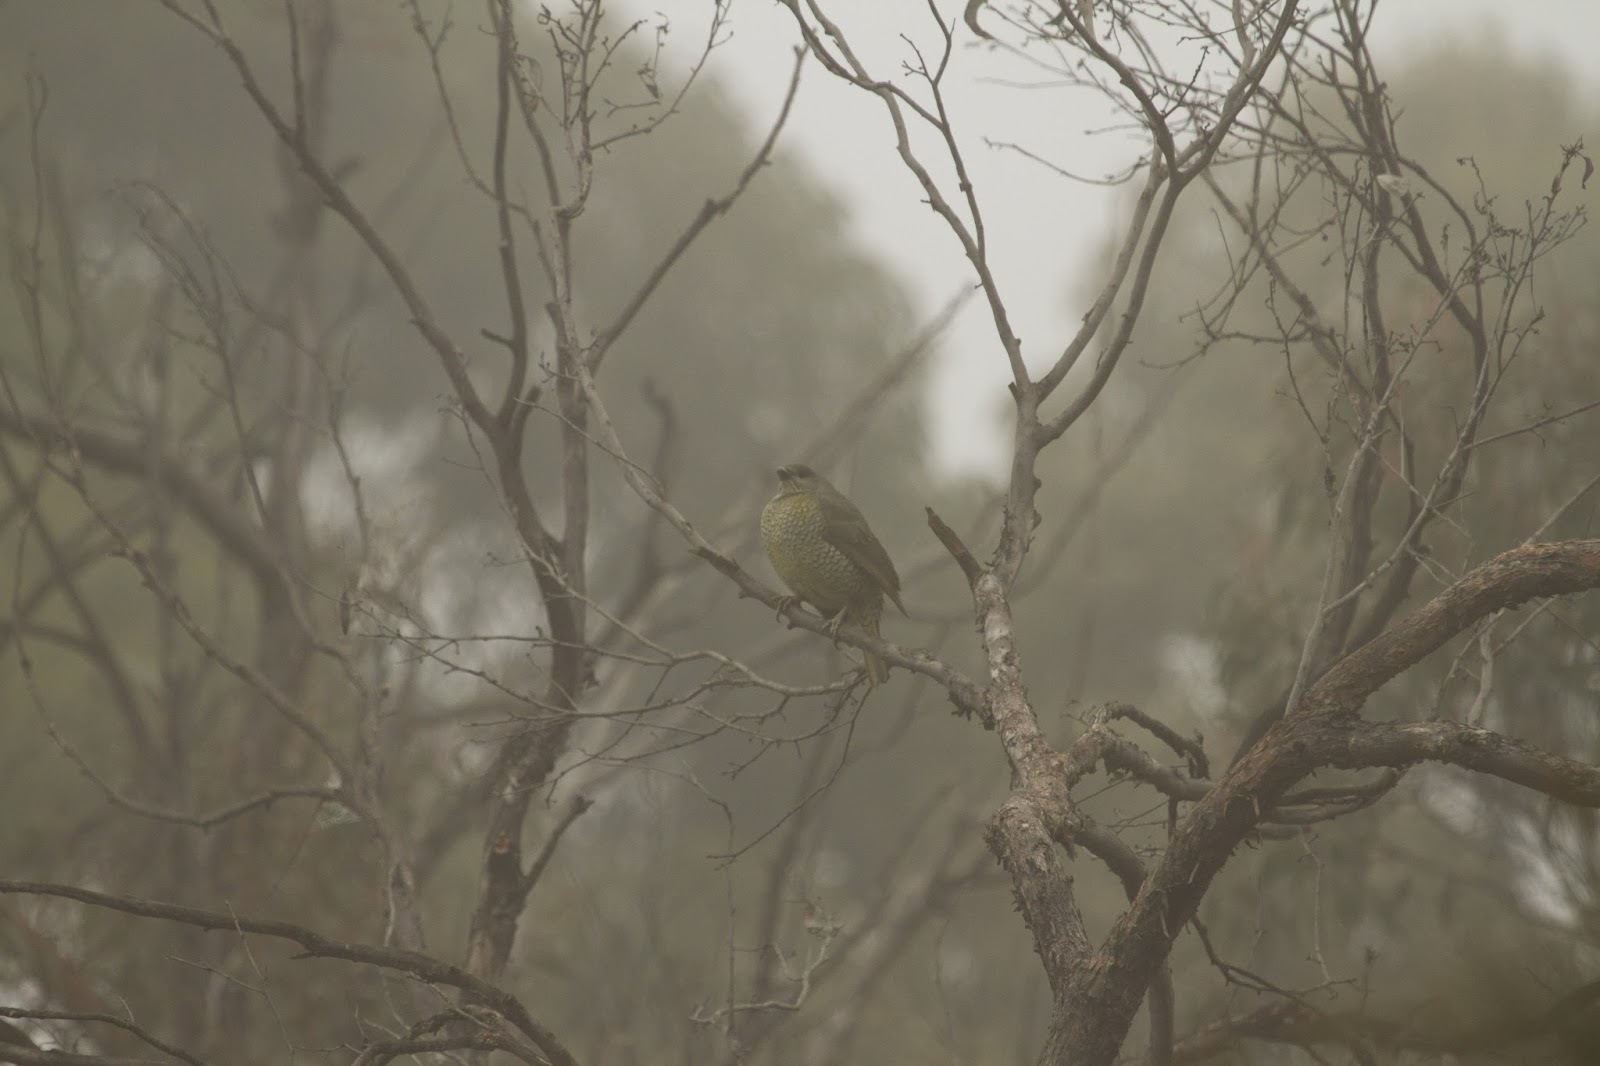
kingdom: Animalia
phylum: Chordata
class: Aves
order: Passeriformes
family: Ptilonorhynchidae
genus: Ptilonorhynchus
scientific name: Ptilonorhynchus violaceus
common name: Satin bowerbird
